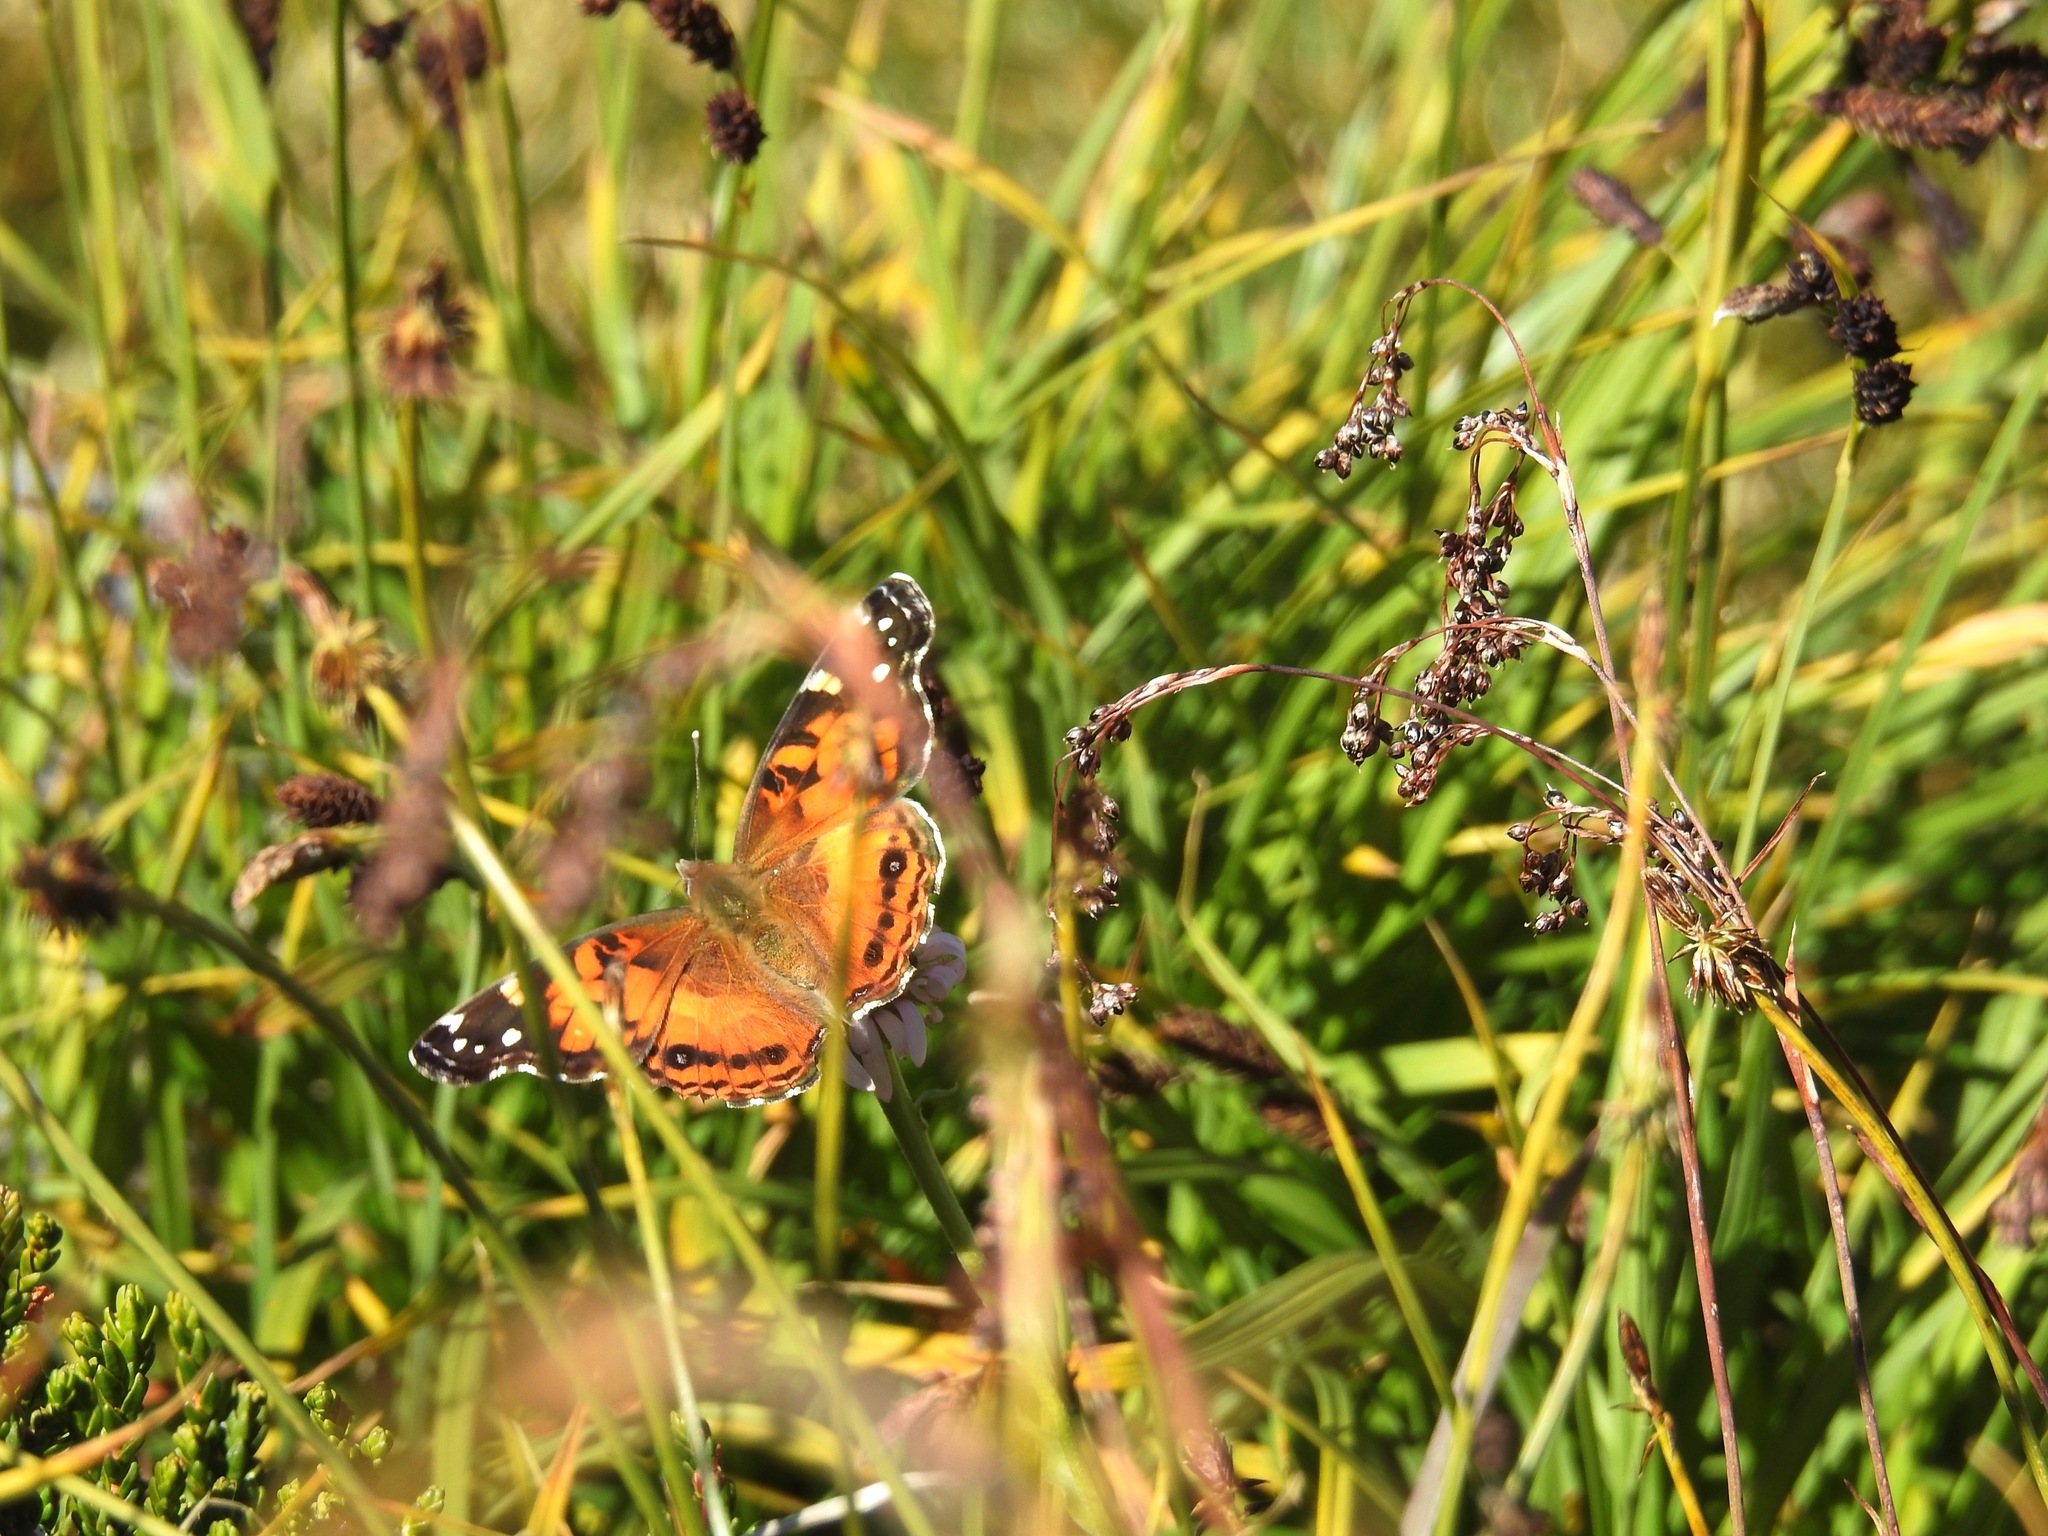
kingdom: Animalia
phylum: Arthropoda
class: Insecta
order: Lepidoptera
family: Nymphalidae
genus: Vanessa
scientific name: Vanessa virginiensis
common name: American lady
